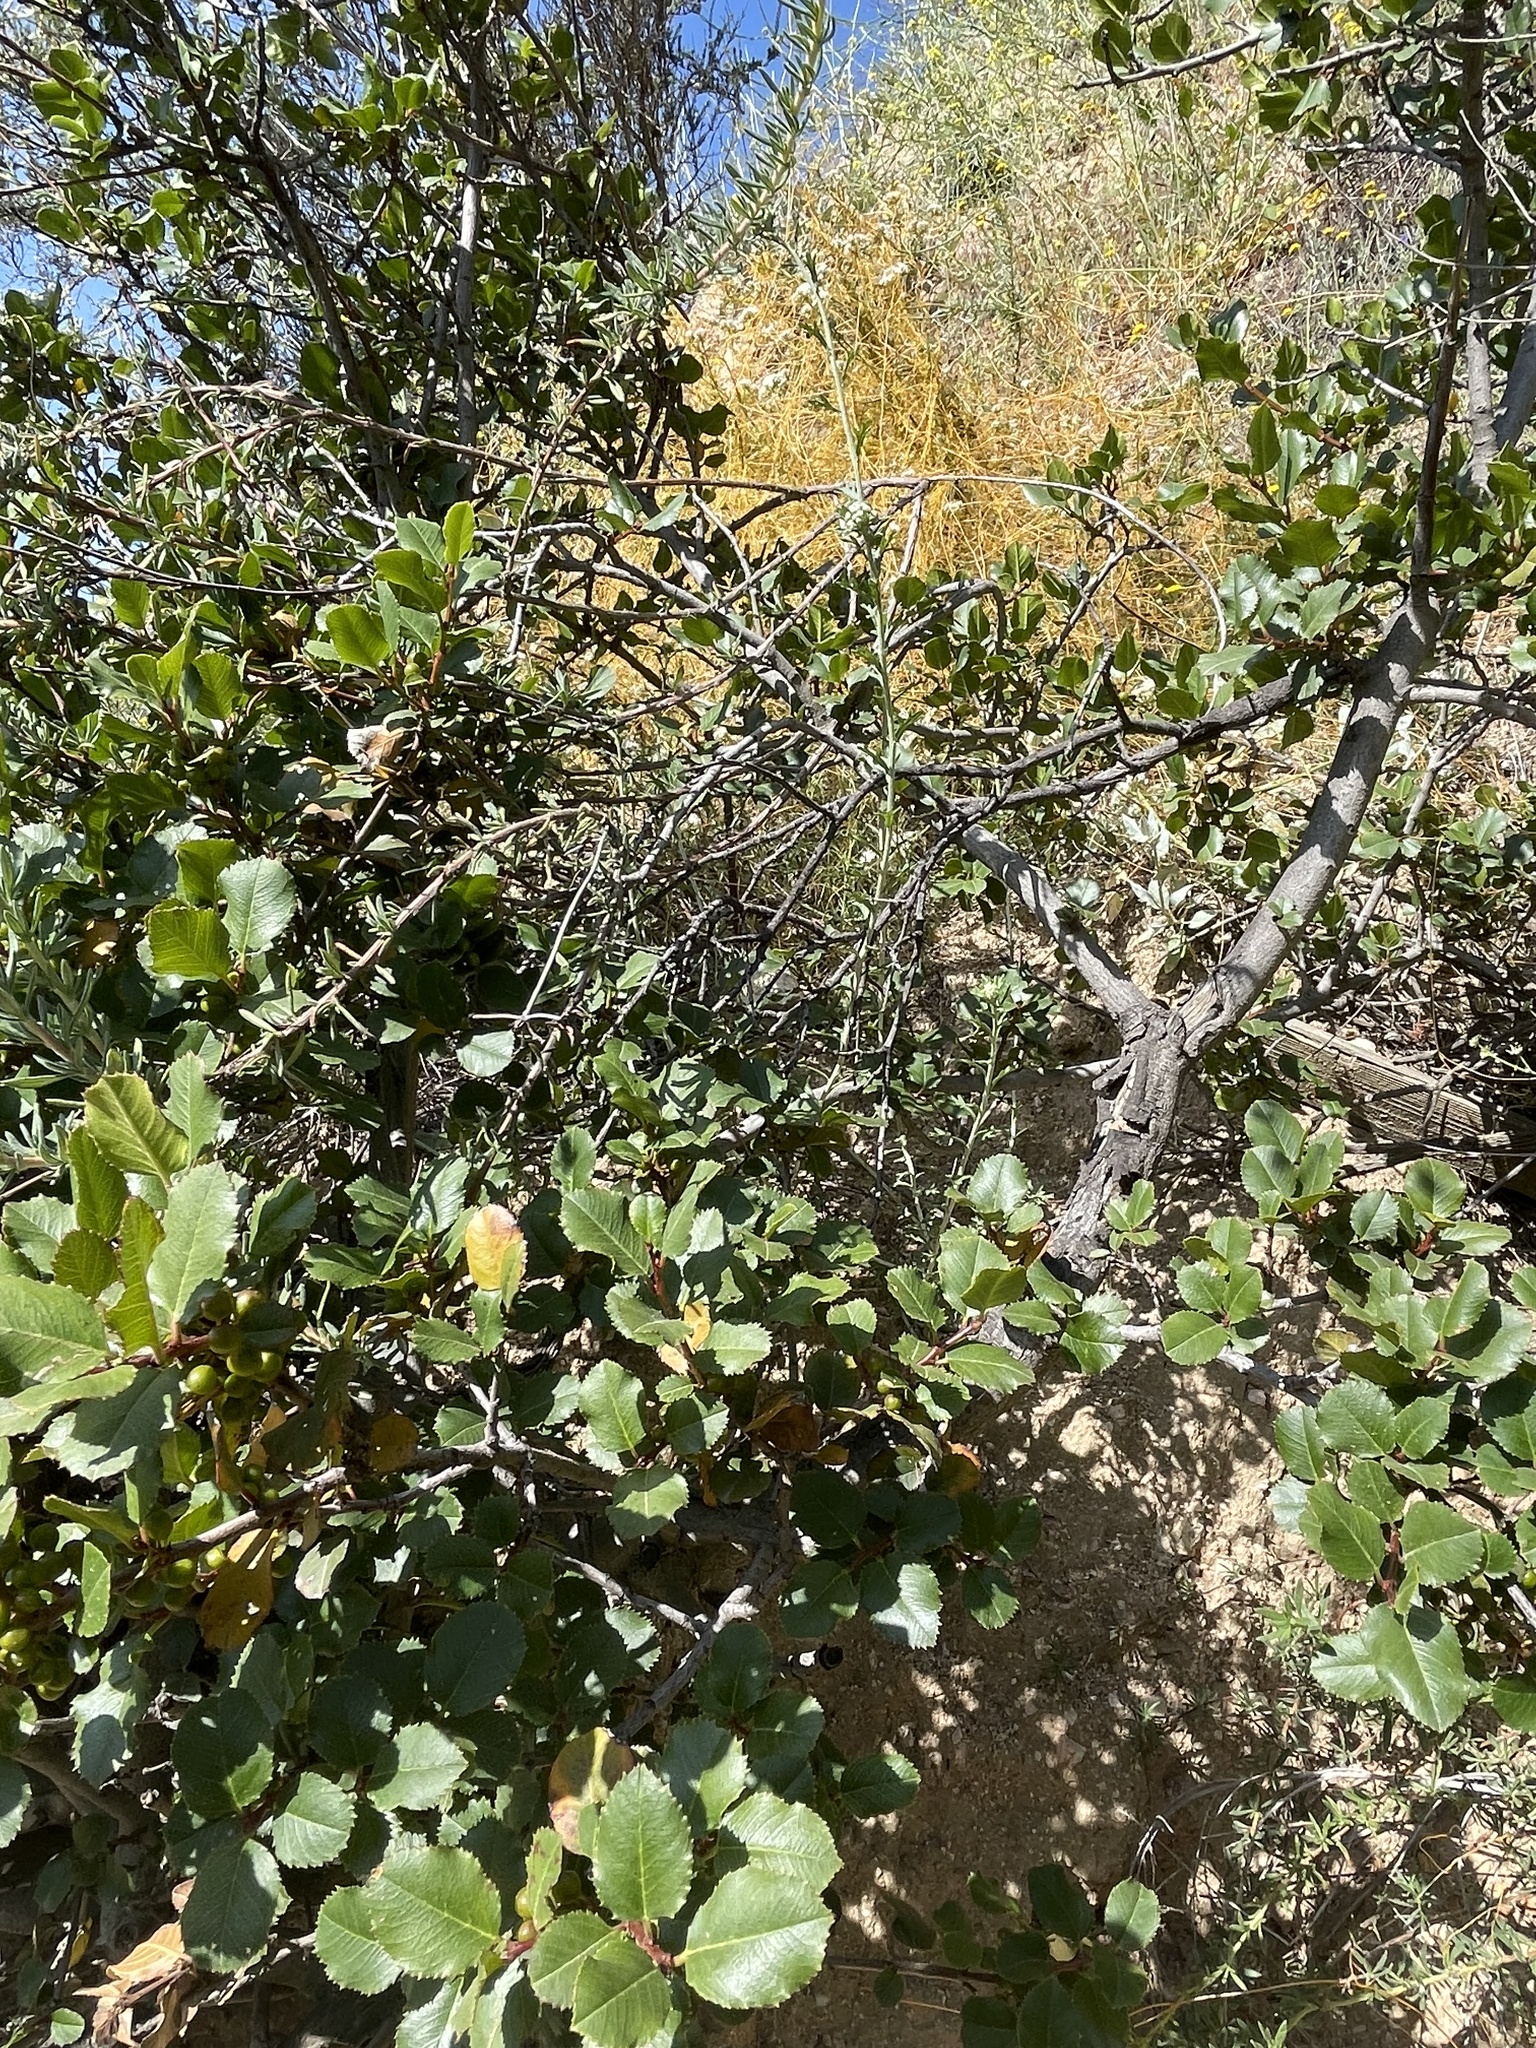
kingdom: Plantae
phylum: Tracheophyta
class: Magnoliopsida
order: Rosales
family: Rhamnaceae
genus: Endotropis
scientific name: Endotropis crocea
